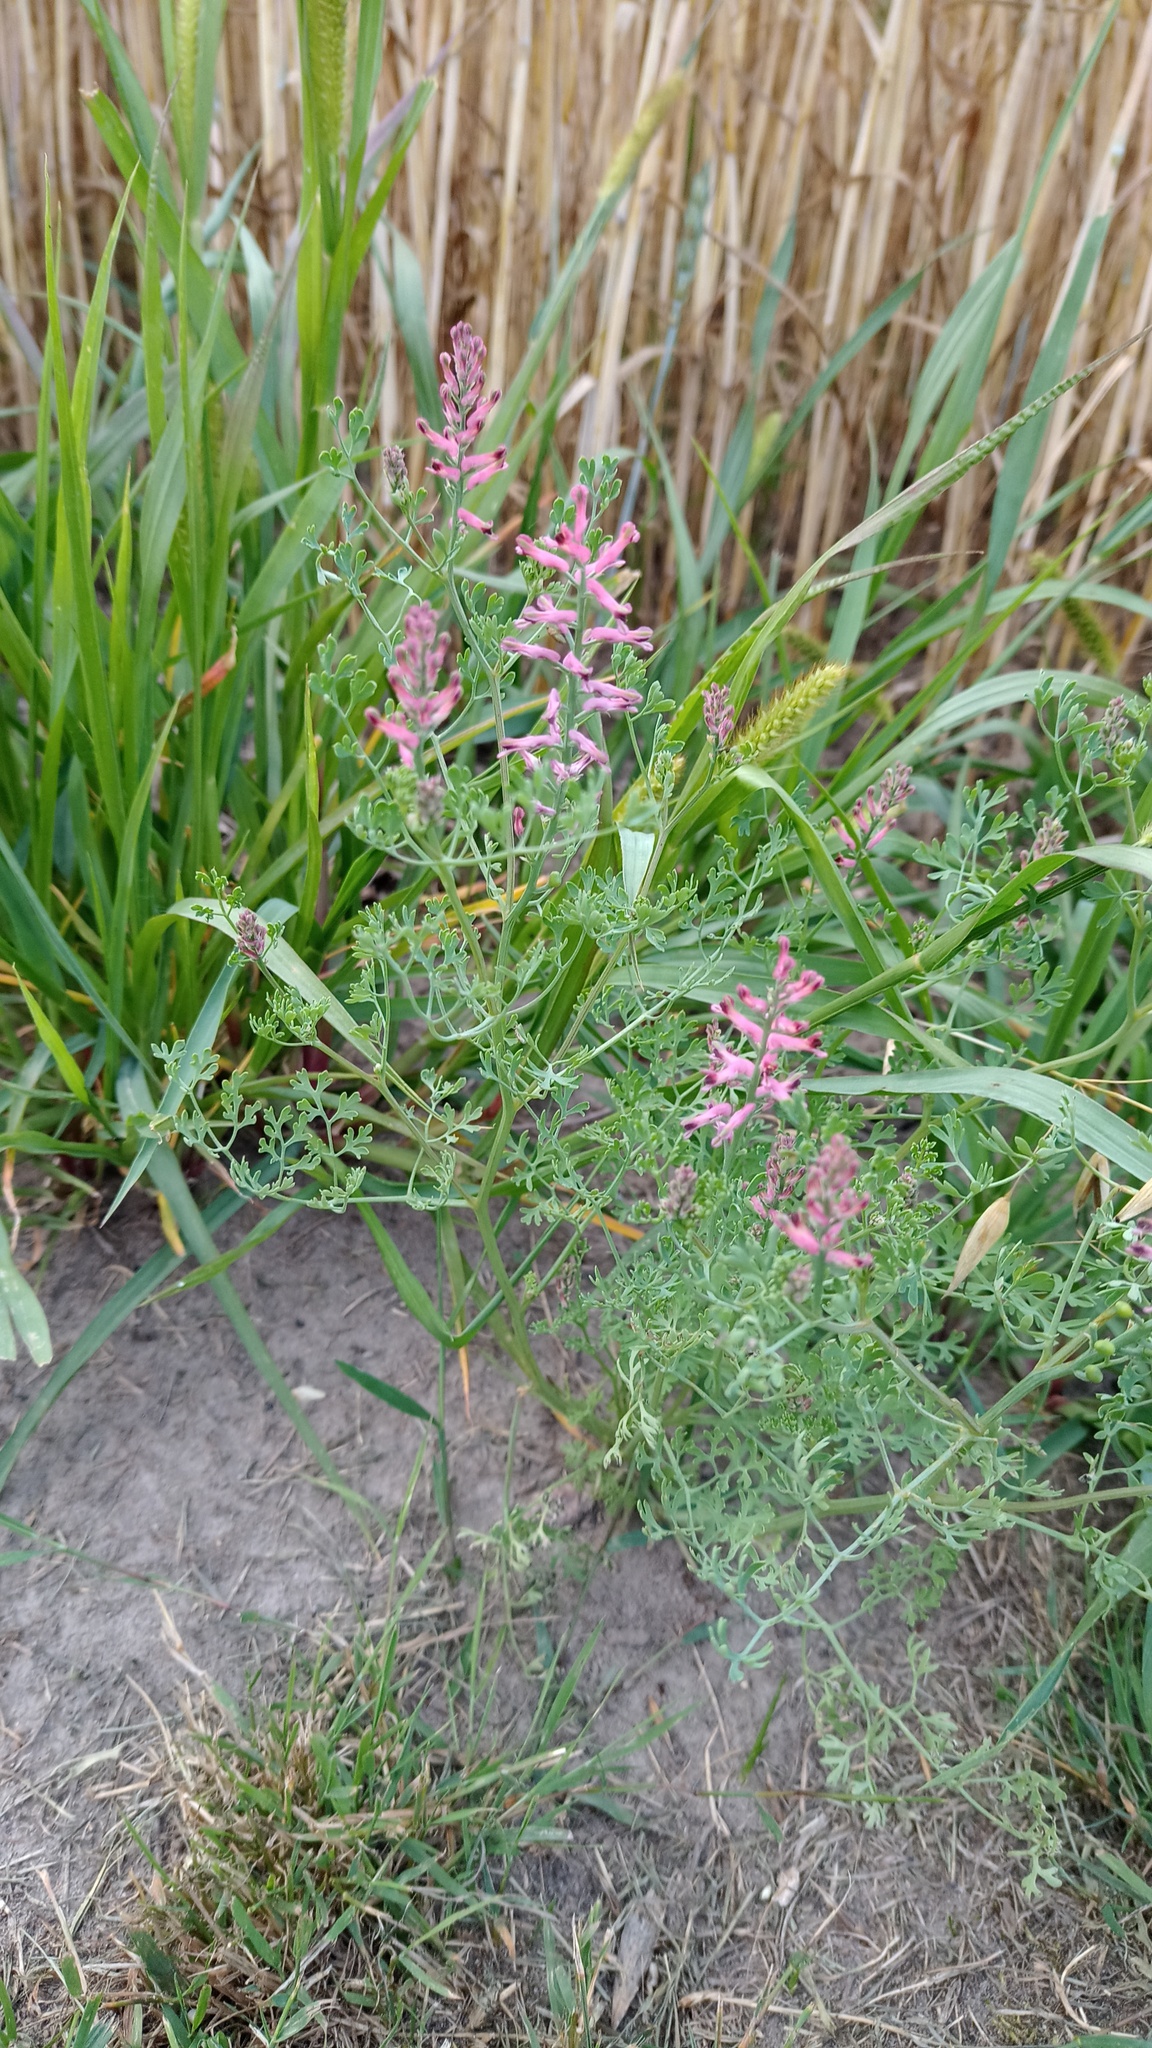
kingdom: Plantae
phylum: Tracheophyta
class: Magnoliopsida
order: Ranunculales
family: Papaveraceae
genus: Fumaria
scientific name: Fumaria officinalis
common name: Common fumitory
